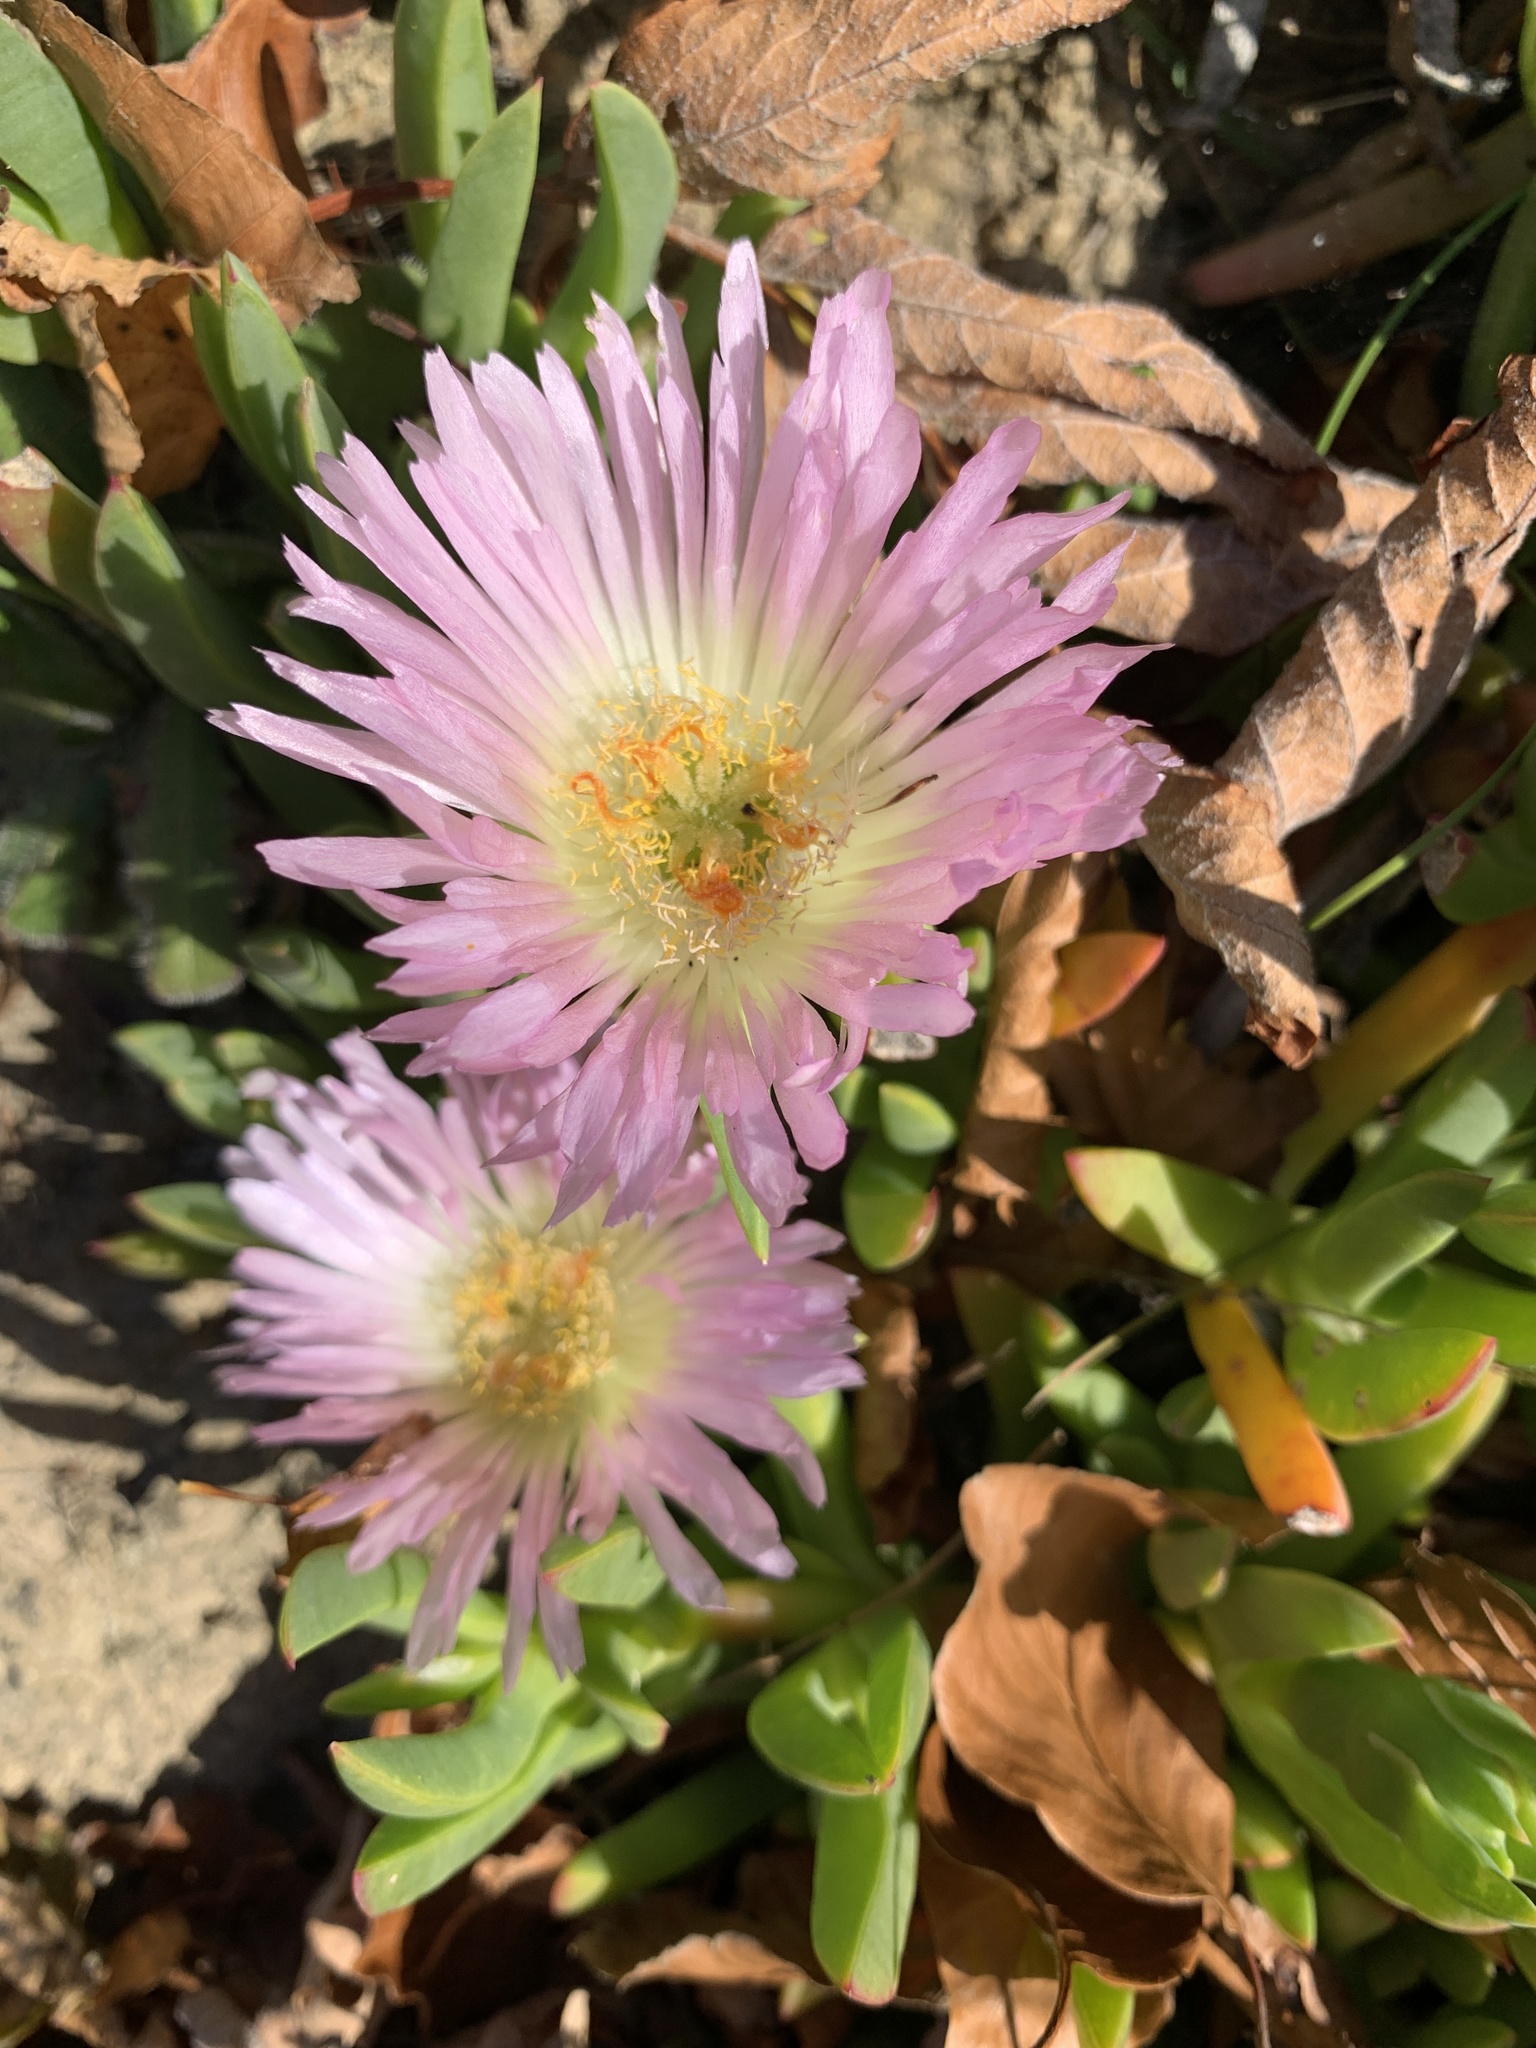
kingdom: Plantae
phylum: Tracheophyta
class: Magnoliopsida
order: Caryophyllales
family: Aizoaceae
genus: Disphyma
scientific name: Disphyma australe
